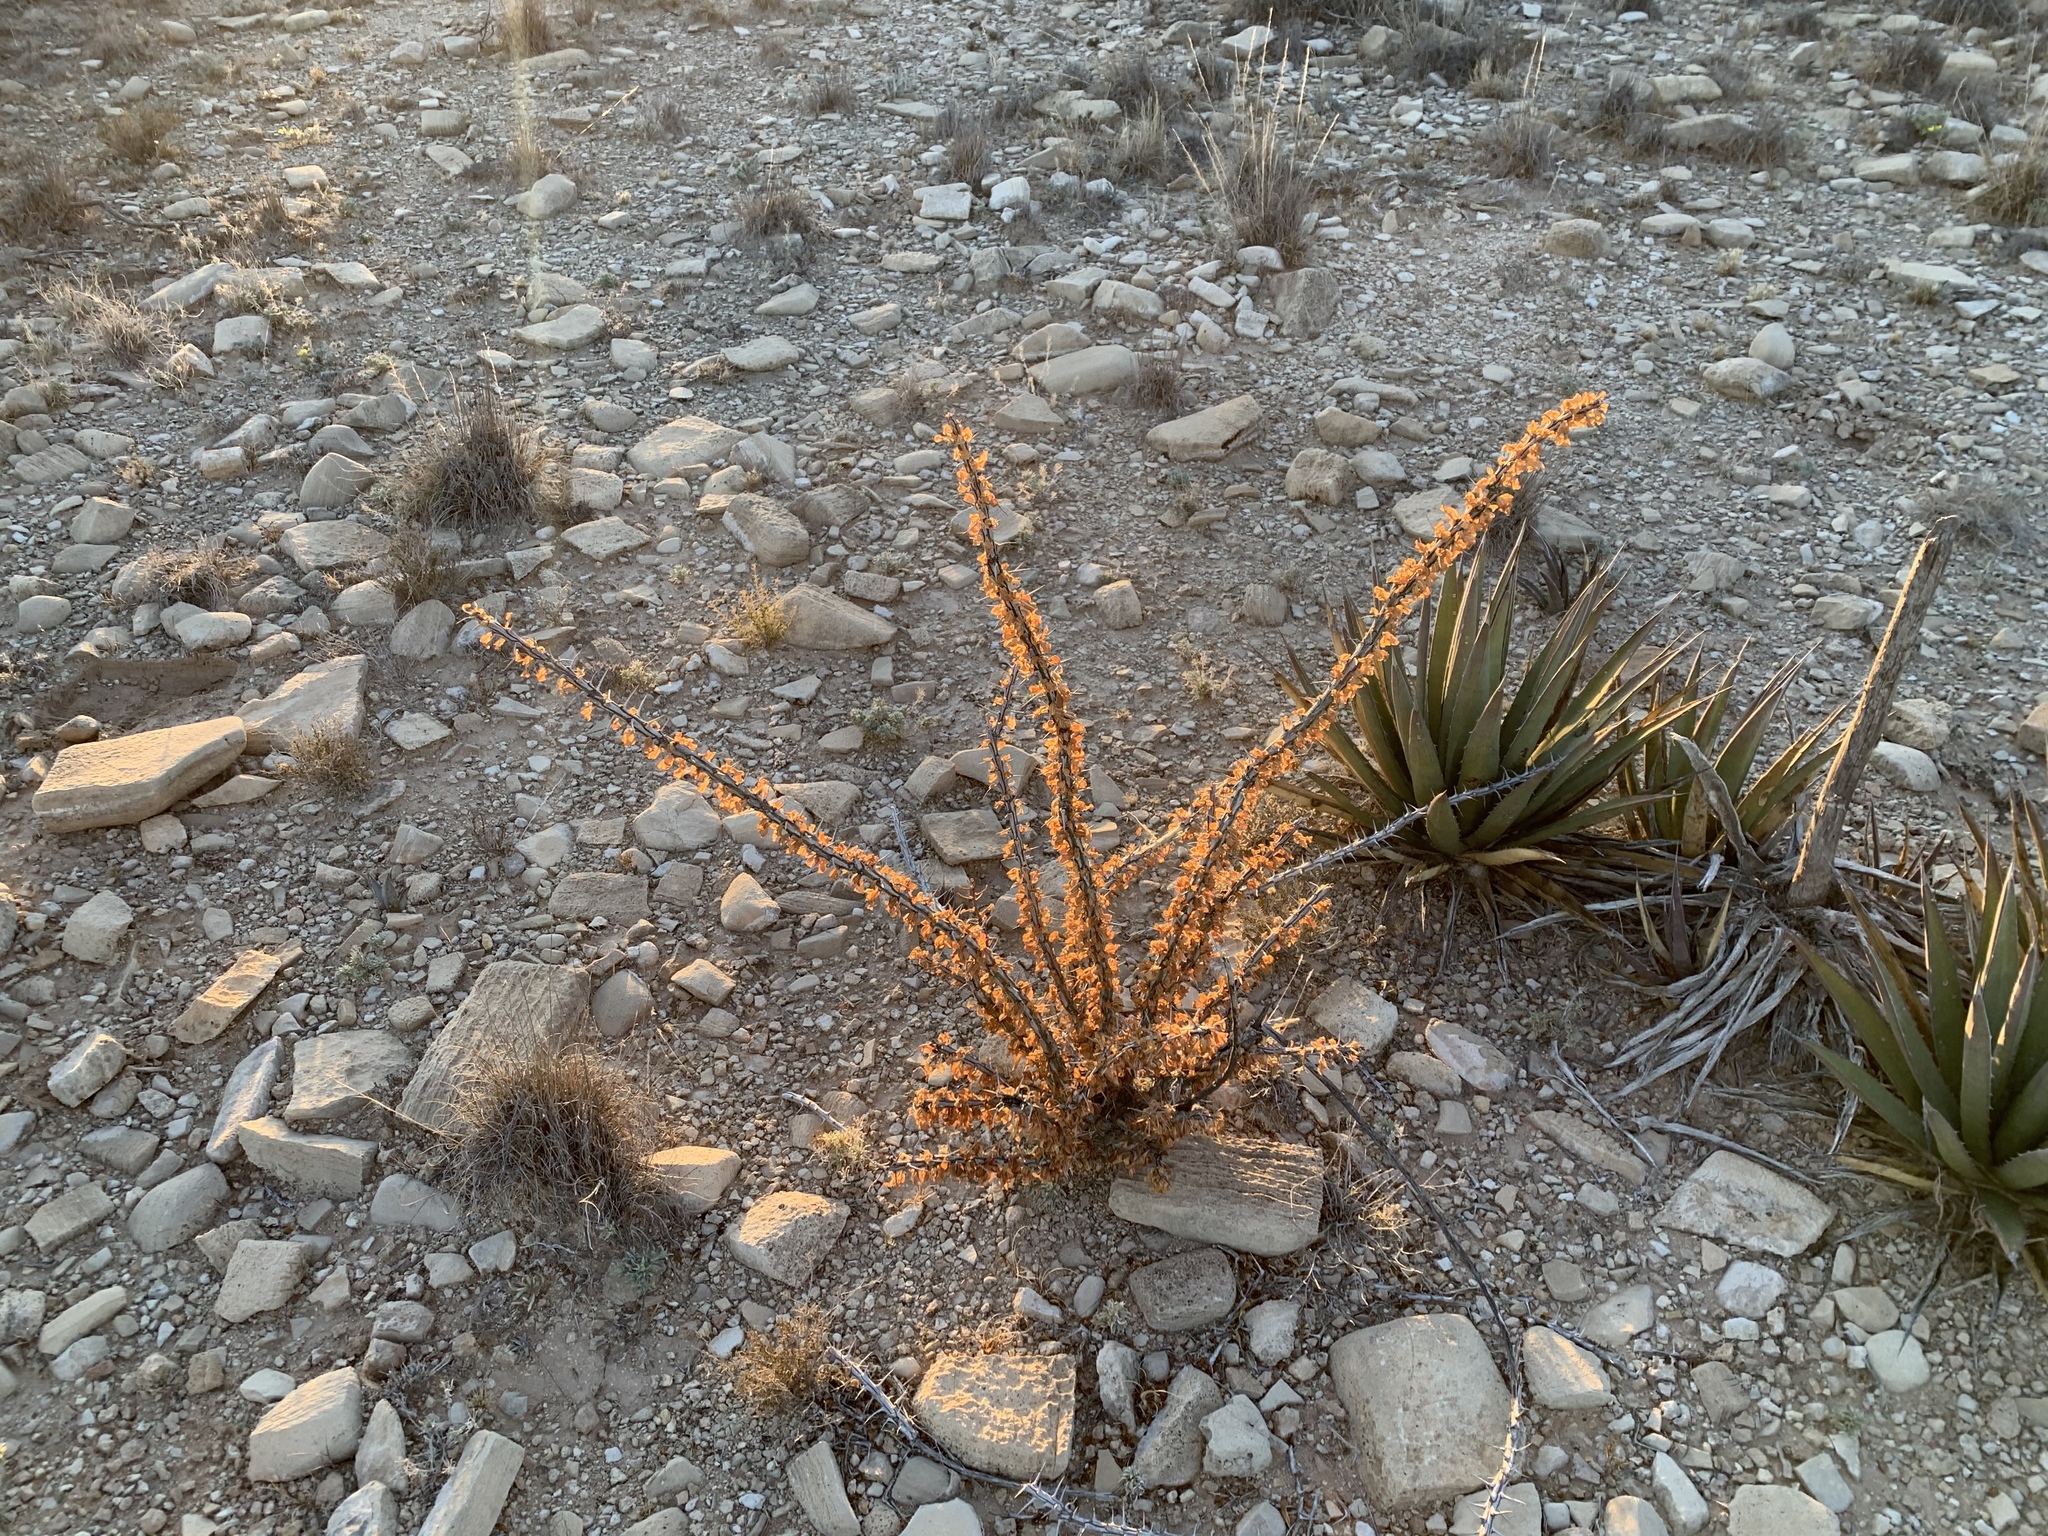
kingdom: Plantae
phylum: Tracheophyta
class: Magnoliopsida
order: Ericales
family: Fouquieriaceae
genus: Fouquieria
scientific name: Fouquieria splendens
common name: Vine-cactus
